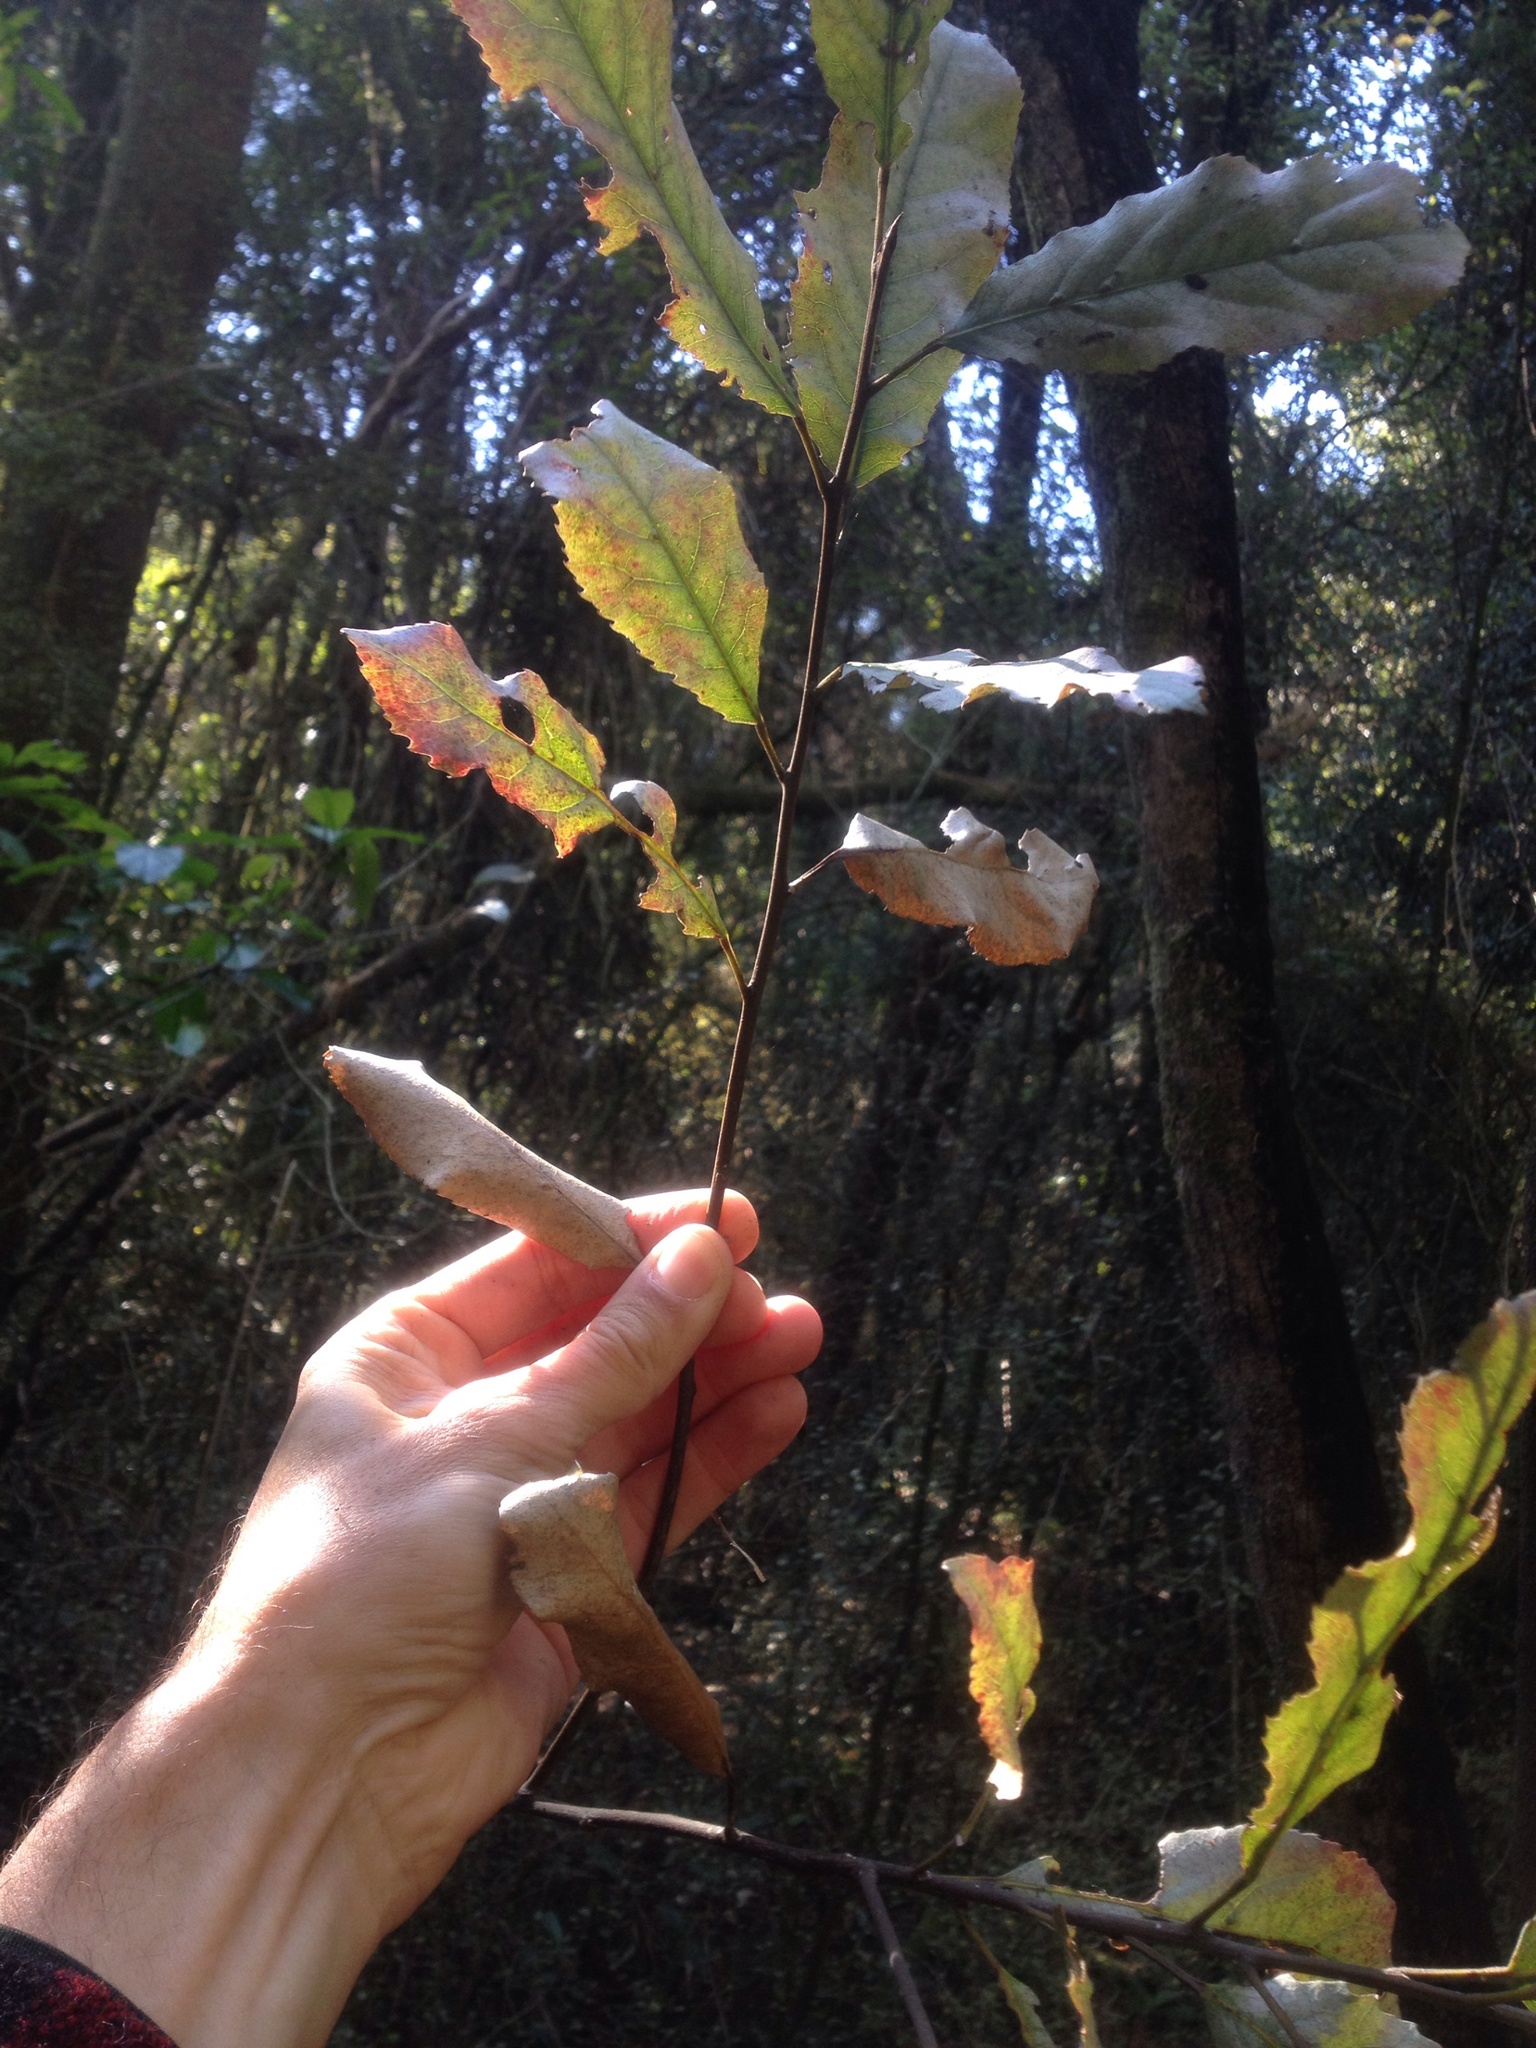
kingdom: Plantae
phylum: Tracheophyta
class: Magnoliopsida
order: Oxalidales
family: Elaeocarpaceae
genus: Elaeocarpus
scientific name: Elaeocarpus dentatus
